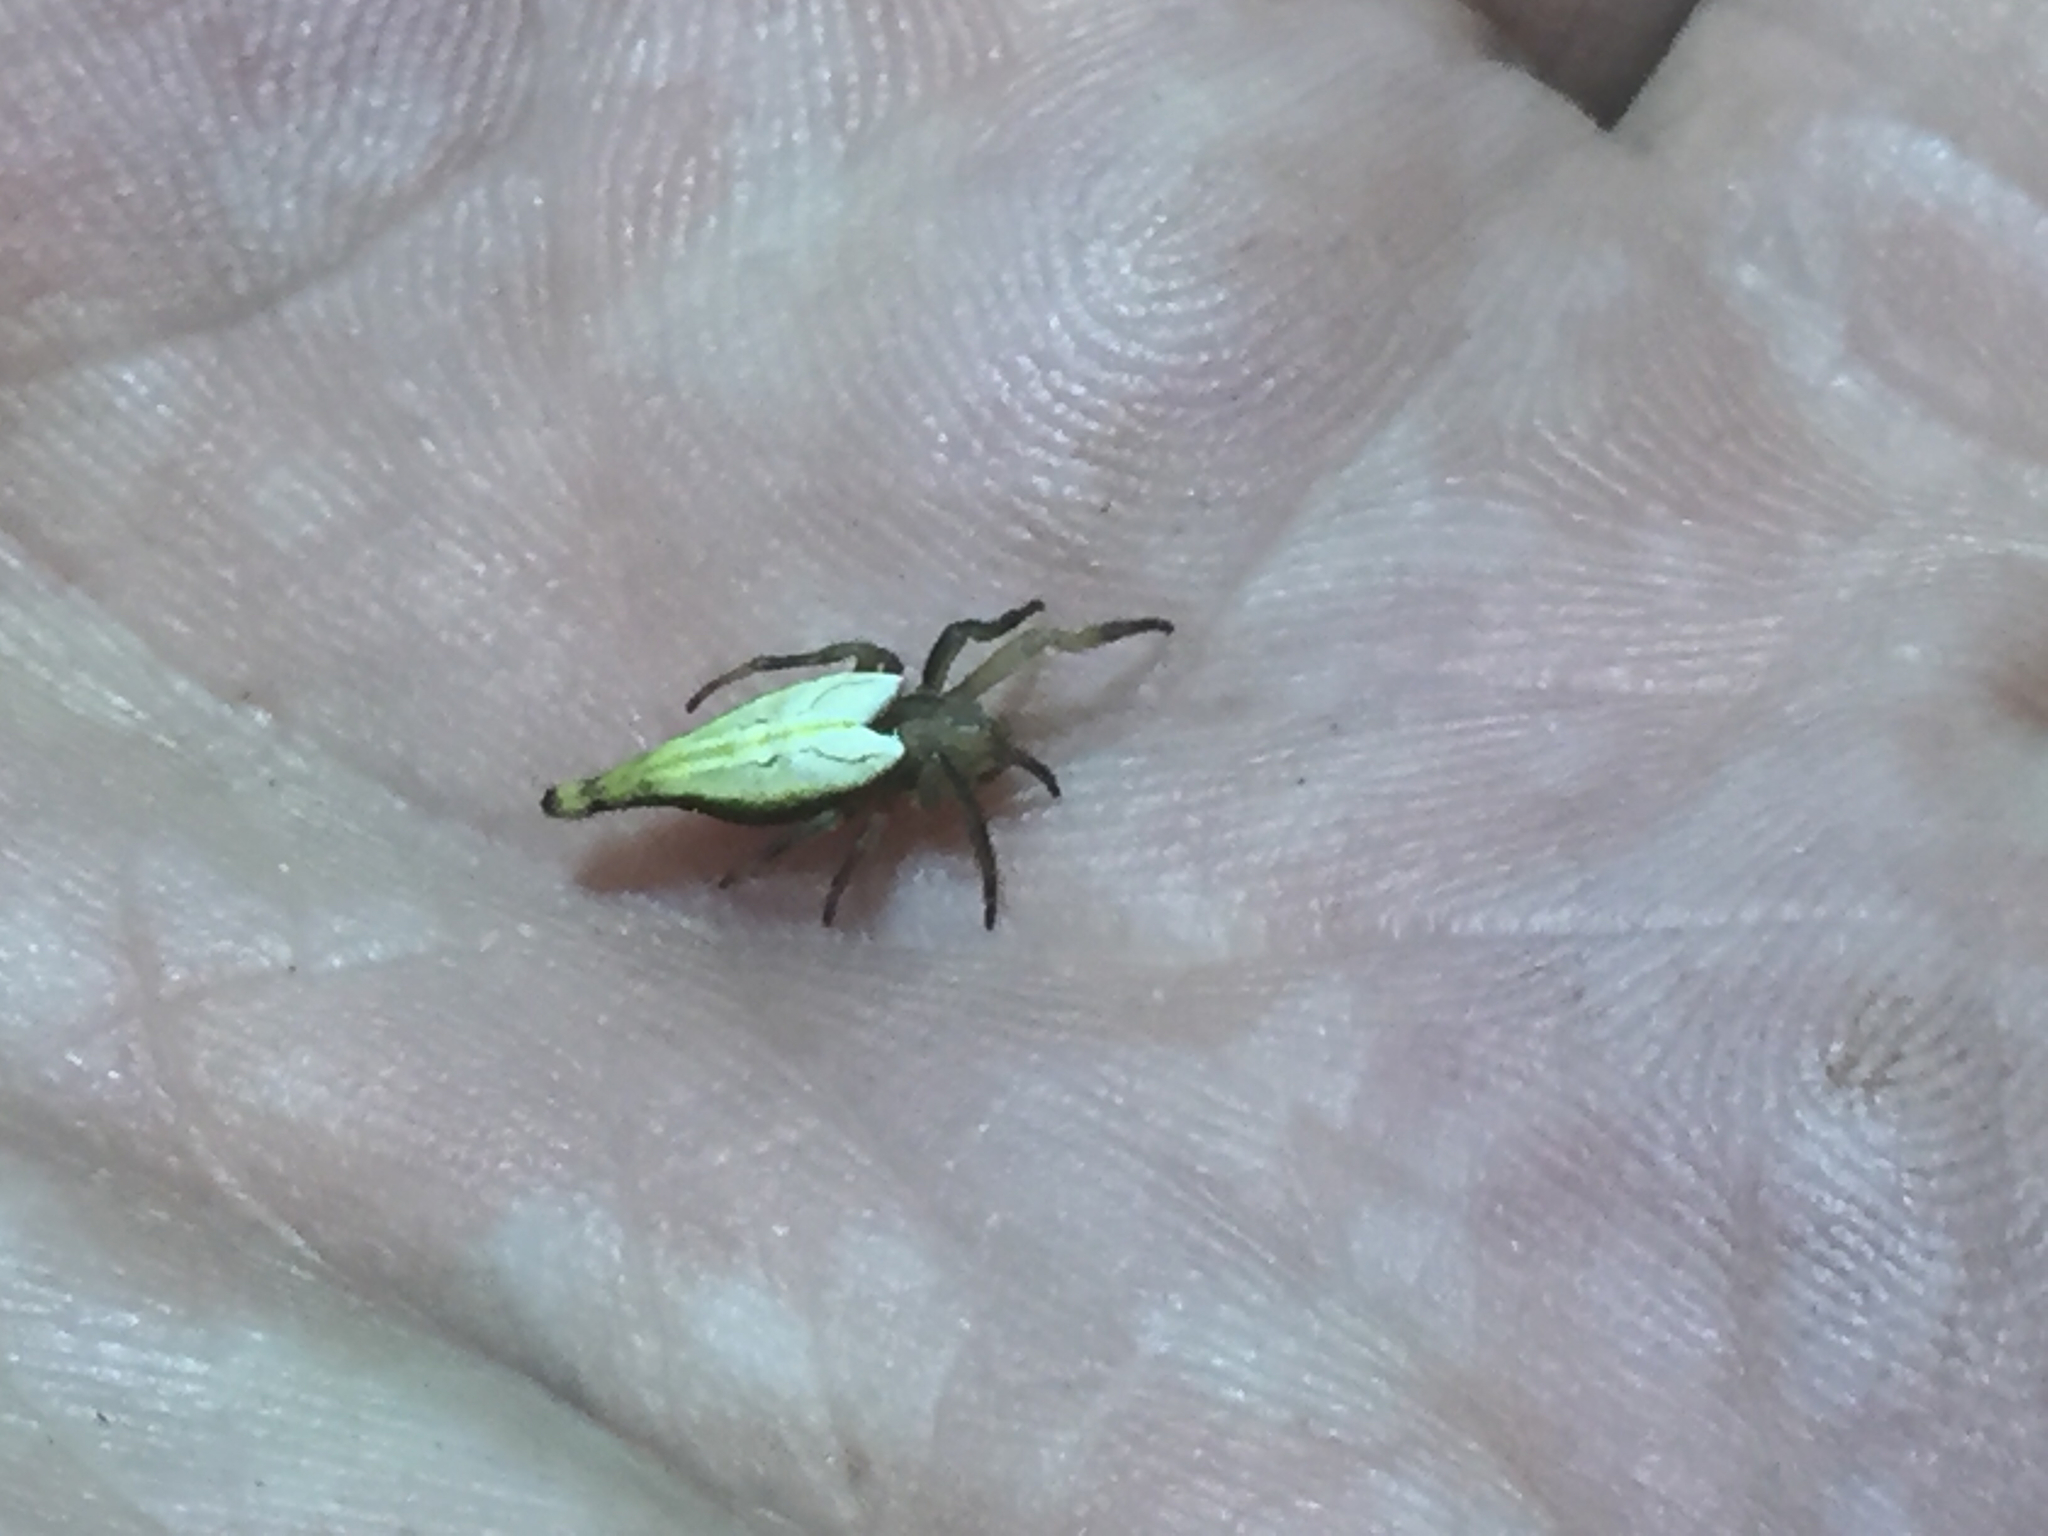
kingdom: Animalia
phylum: Arthropoda
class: Arachnida
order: Araneae
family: Araneidae
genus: Arachnura
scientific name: Arachnura feredayi
